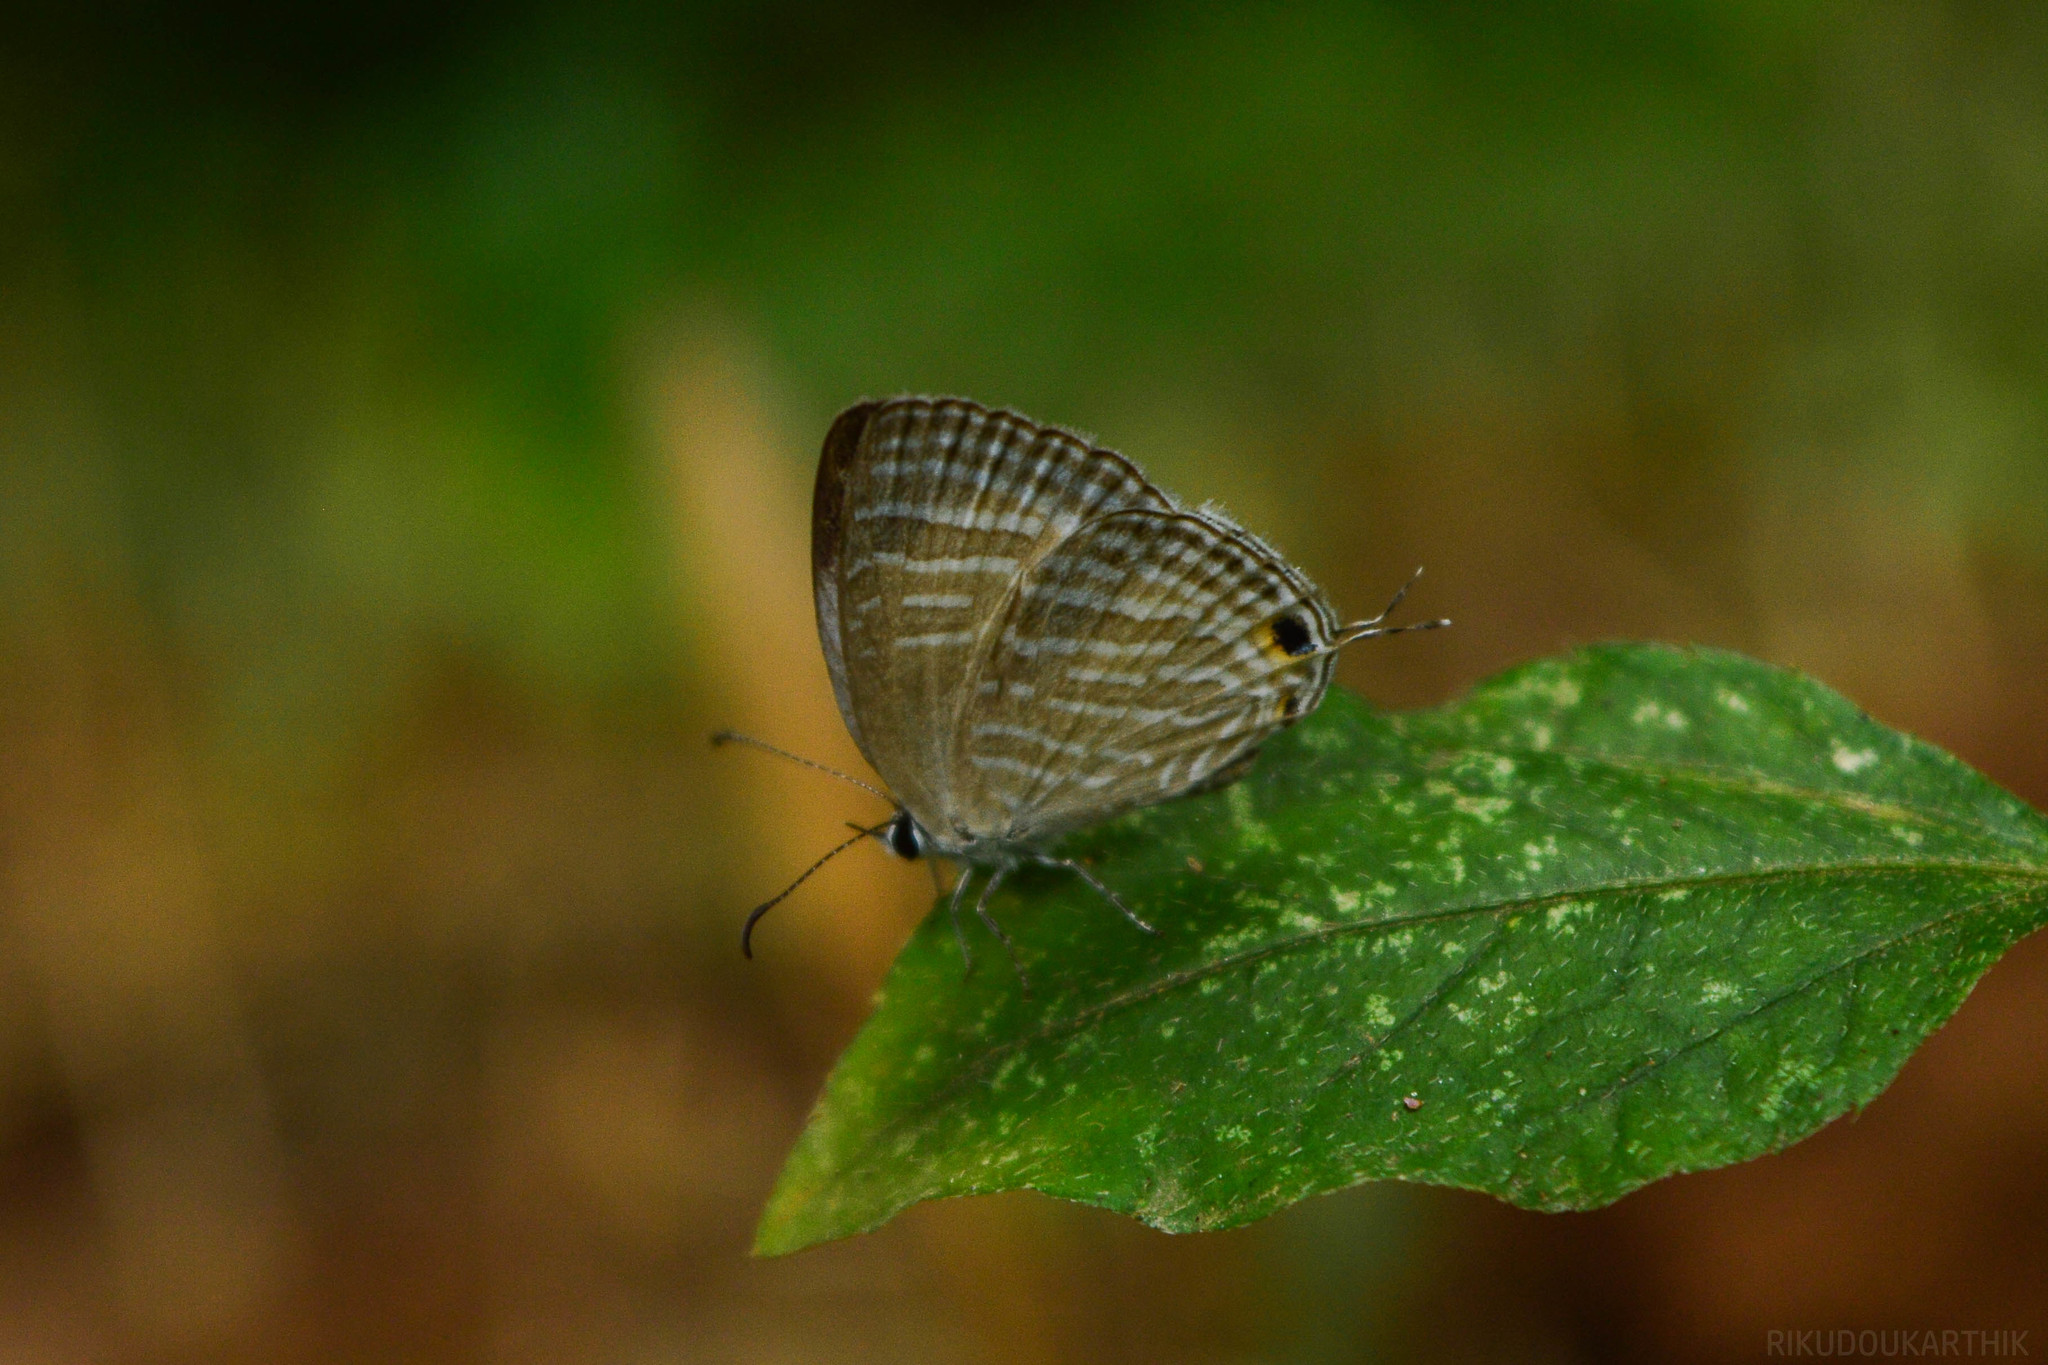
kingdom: Animalia
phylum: Arthropoda
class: Insecta
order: Lepidoptera
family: Lycaenidae
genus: Jamides
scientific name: Jamides celeno
